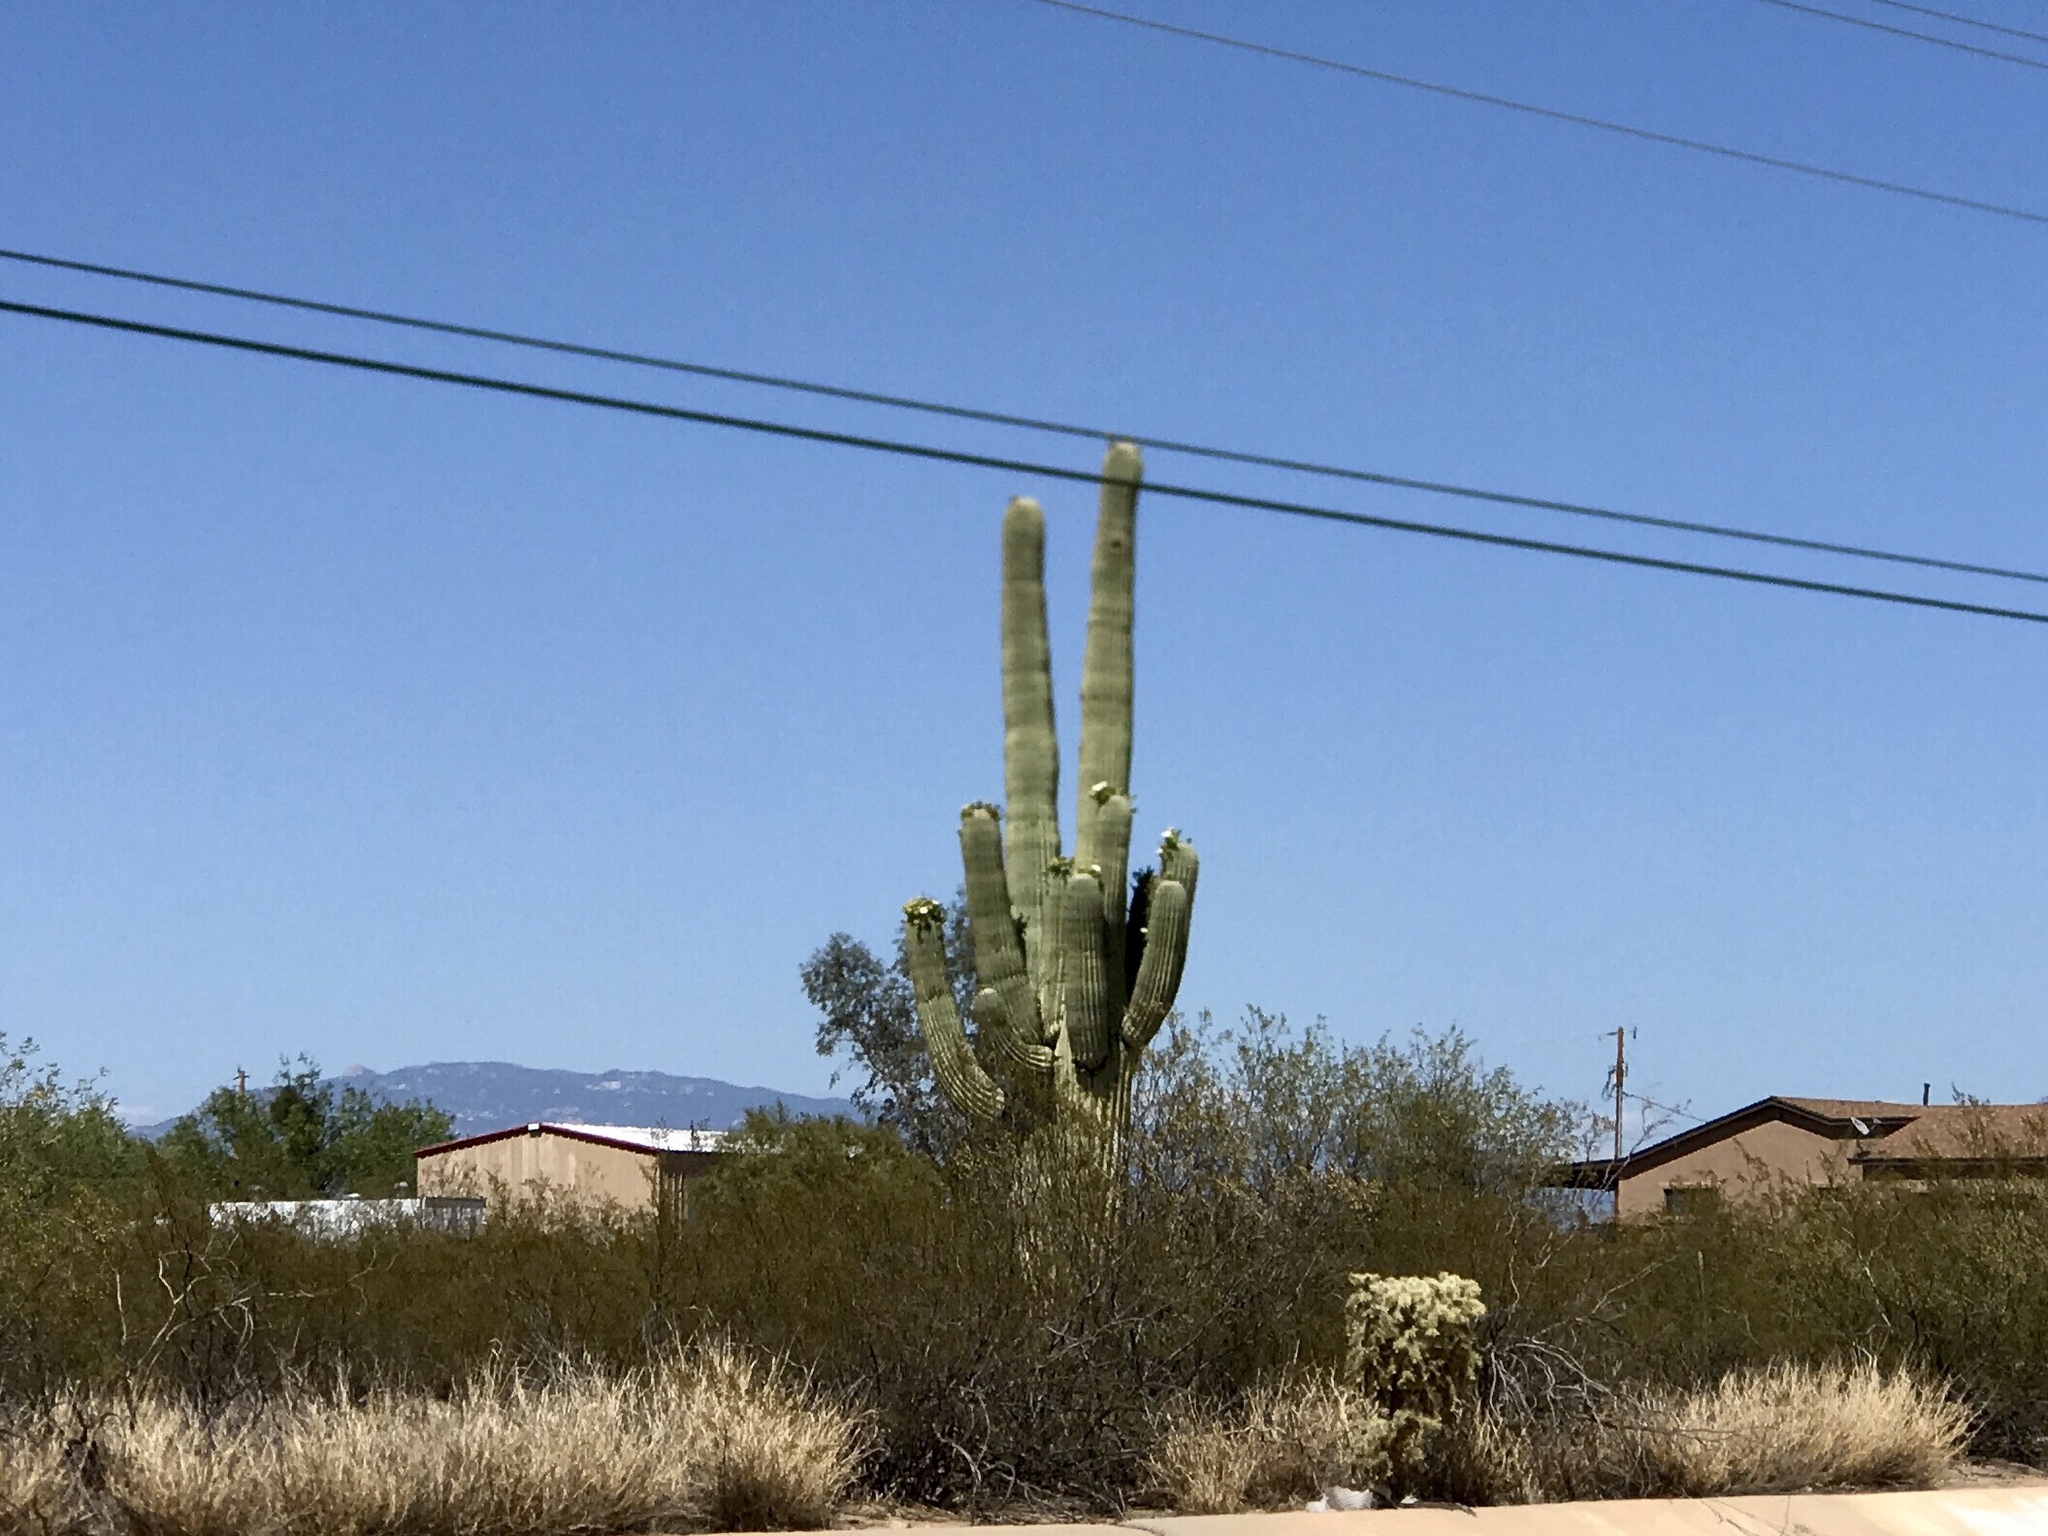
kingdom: Plantae
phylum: Tracheophyta
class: Magnoliopsida
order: Caryophyllales
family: Cactaceae
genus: Carnegiea
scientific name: Carnegiea gigantea
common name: Saguaro
